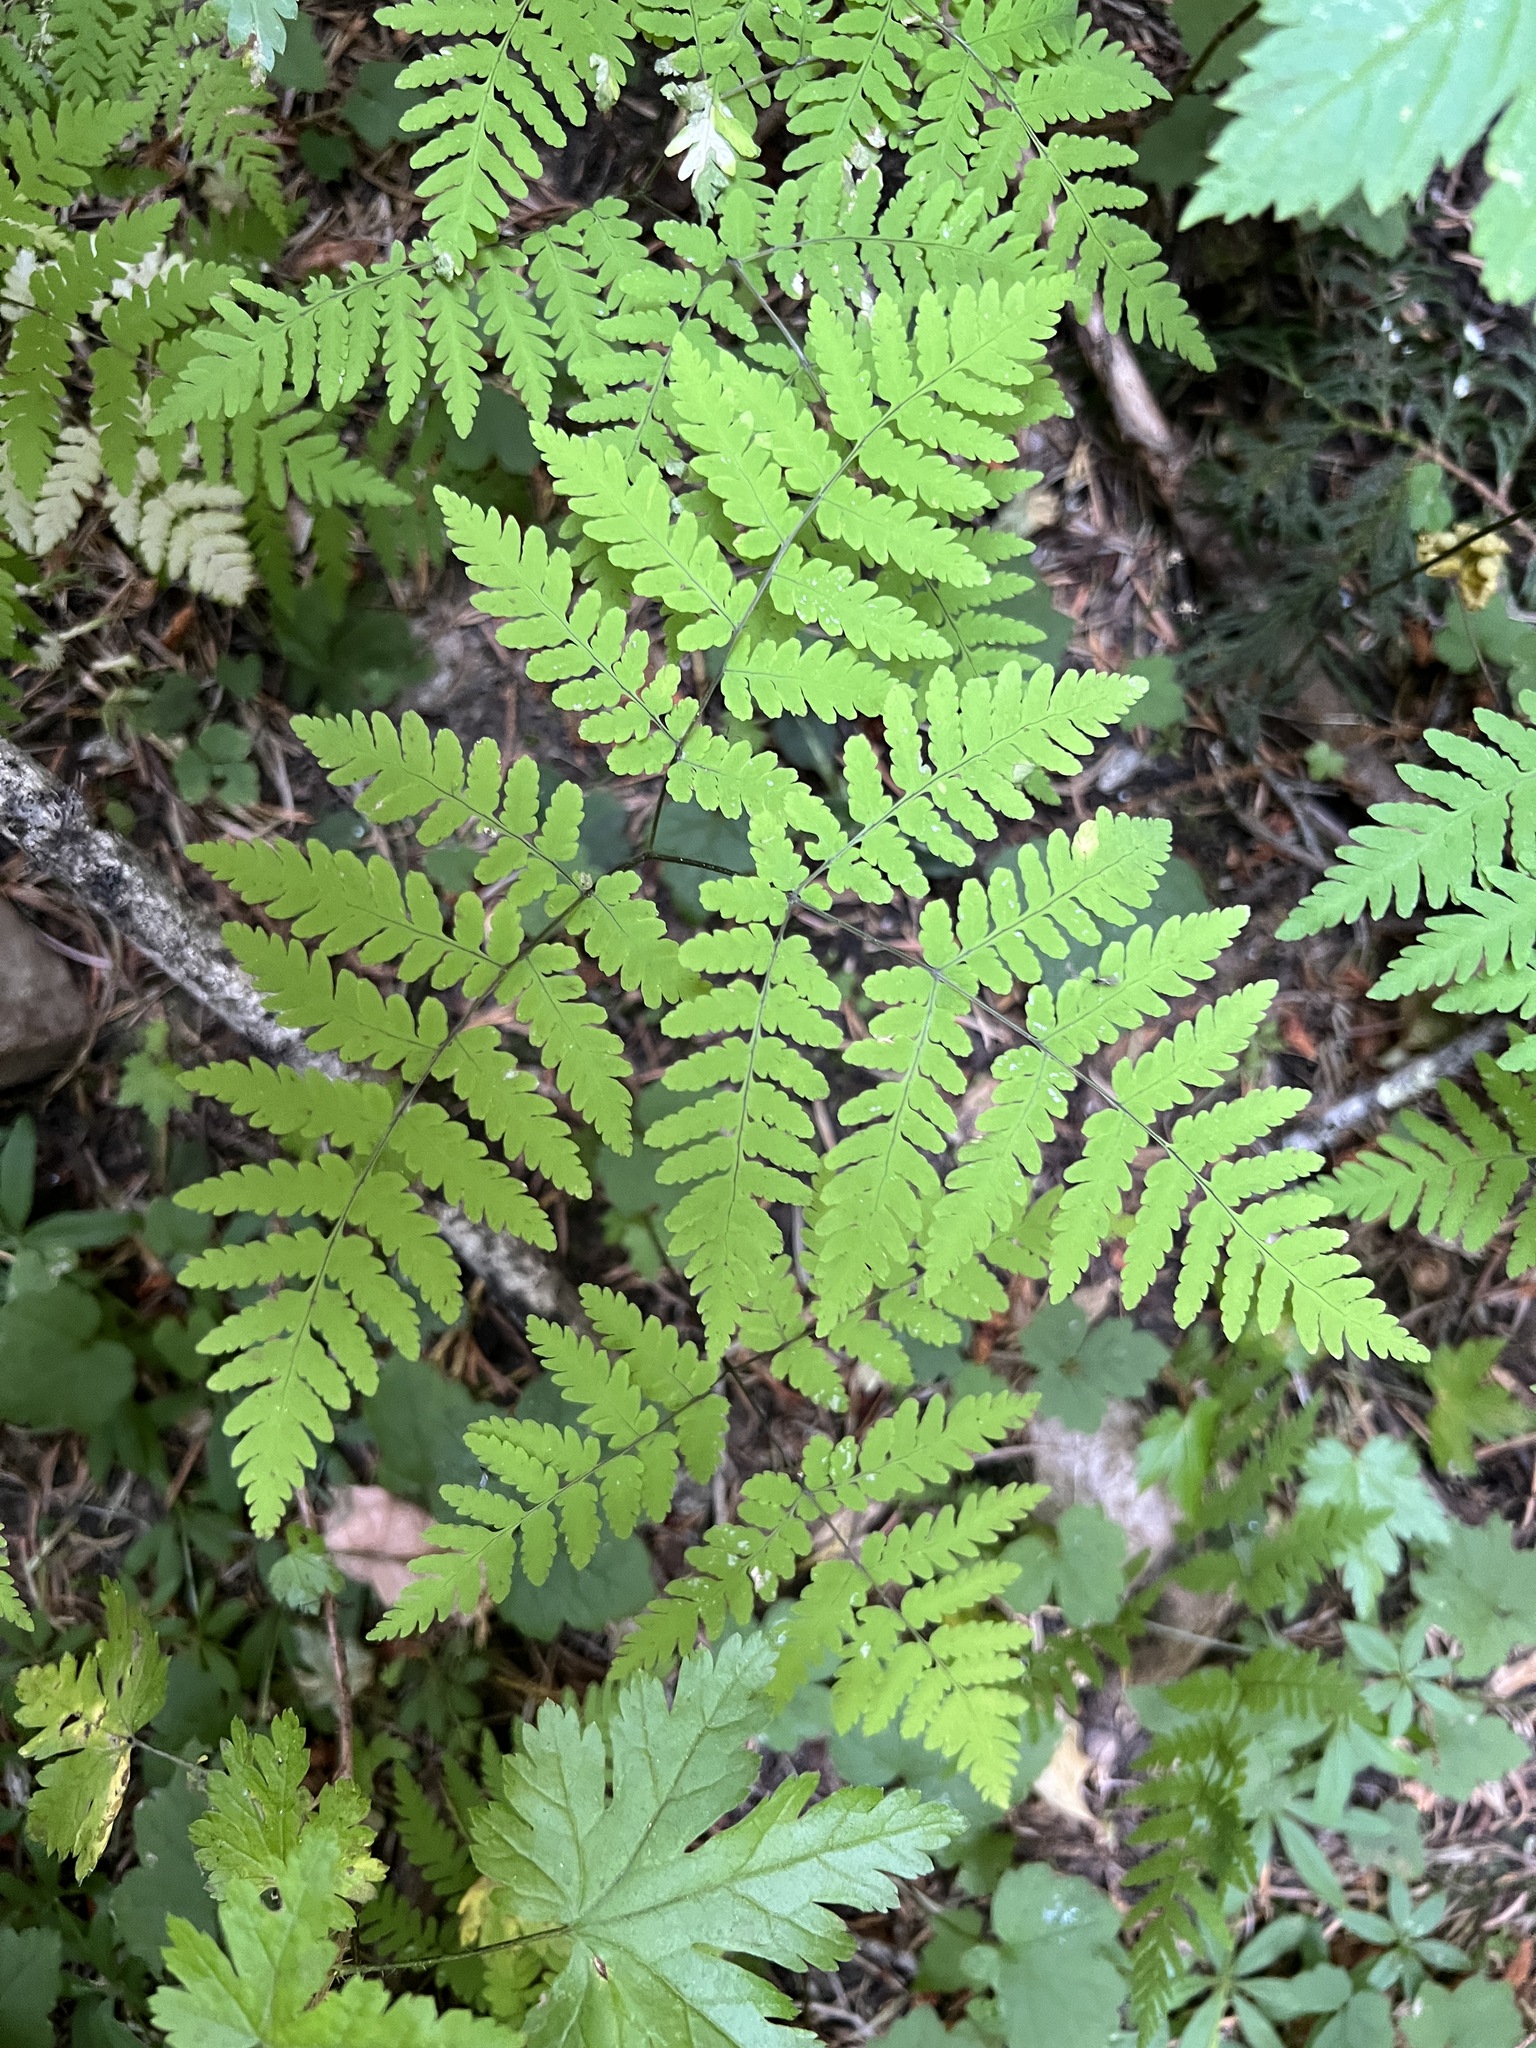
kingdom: Plantae
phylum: Tracheophyta
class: Polypodiopsida
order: Polypodiales
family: Cystopteridaceae
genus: Gymnocarpium
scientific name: Gymnocarpium disjunctum
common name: Western oak fern
